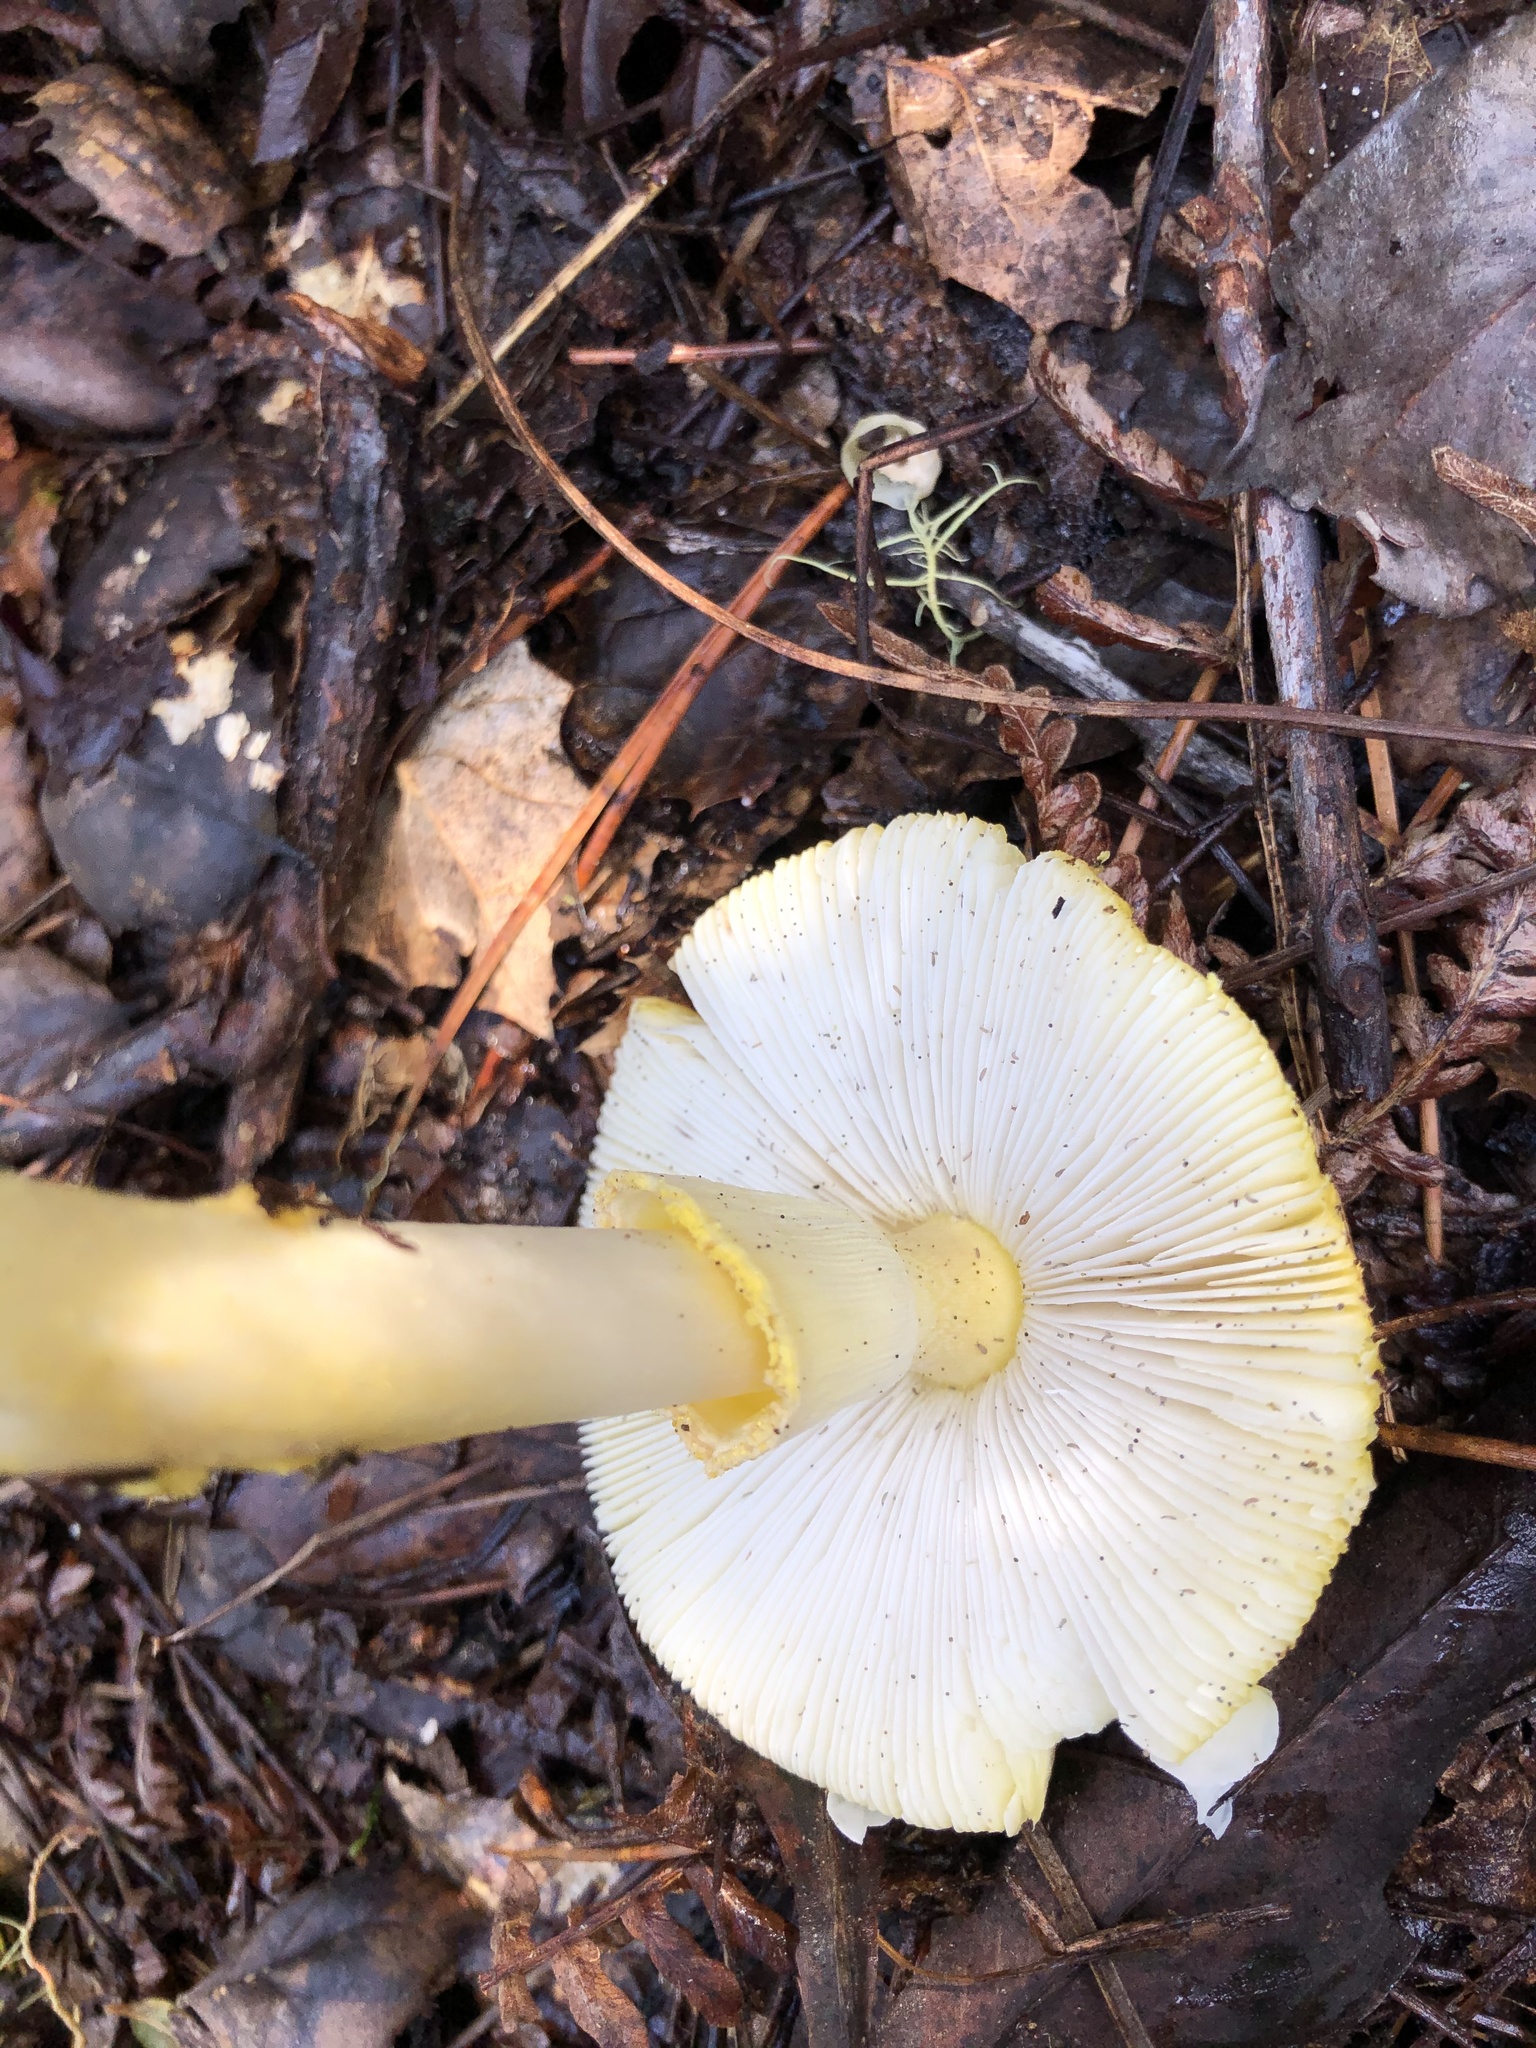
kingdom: Fungi
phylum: Basidiomycota
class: Agaricomycetes
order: Agaricales
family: Amanitaceae
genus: Amanita
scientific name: Amanita augusta
